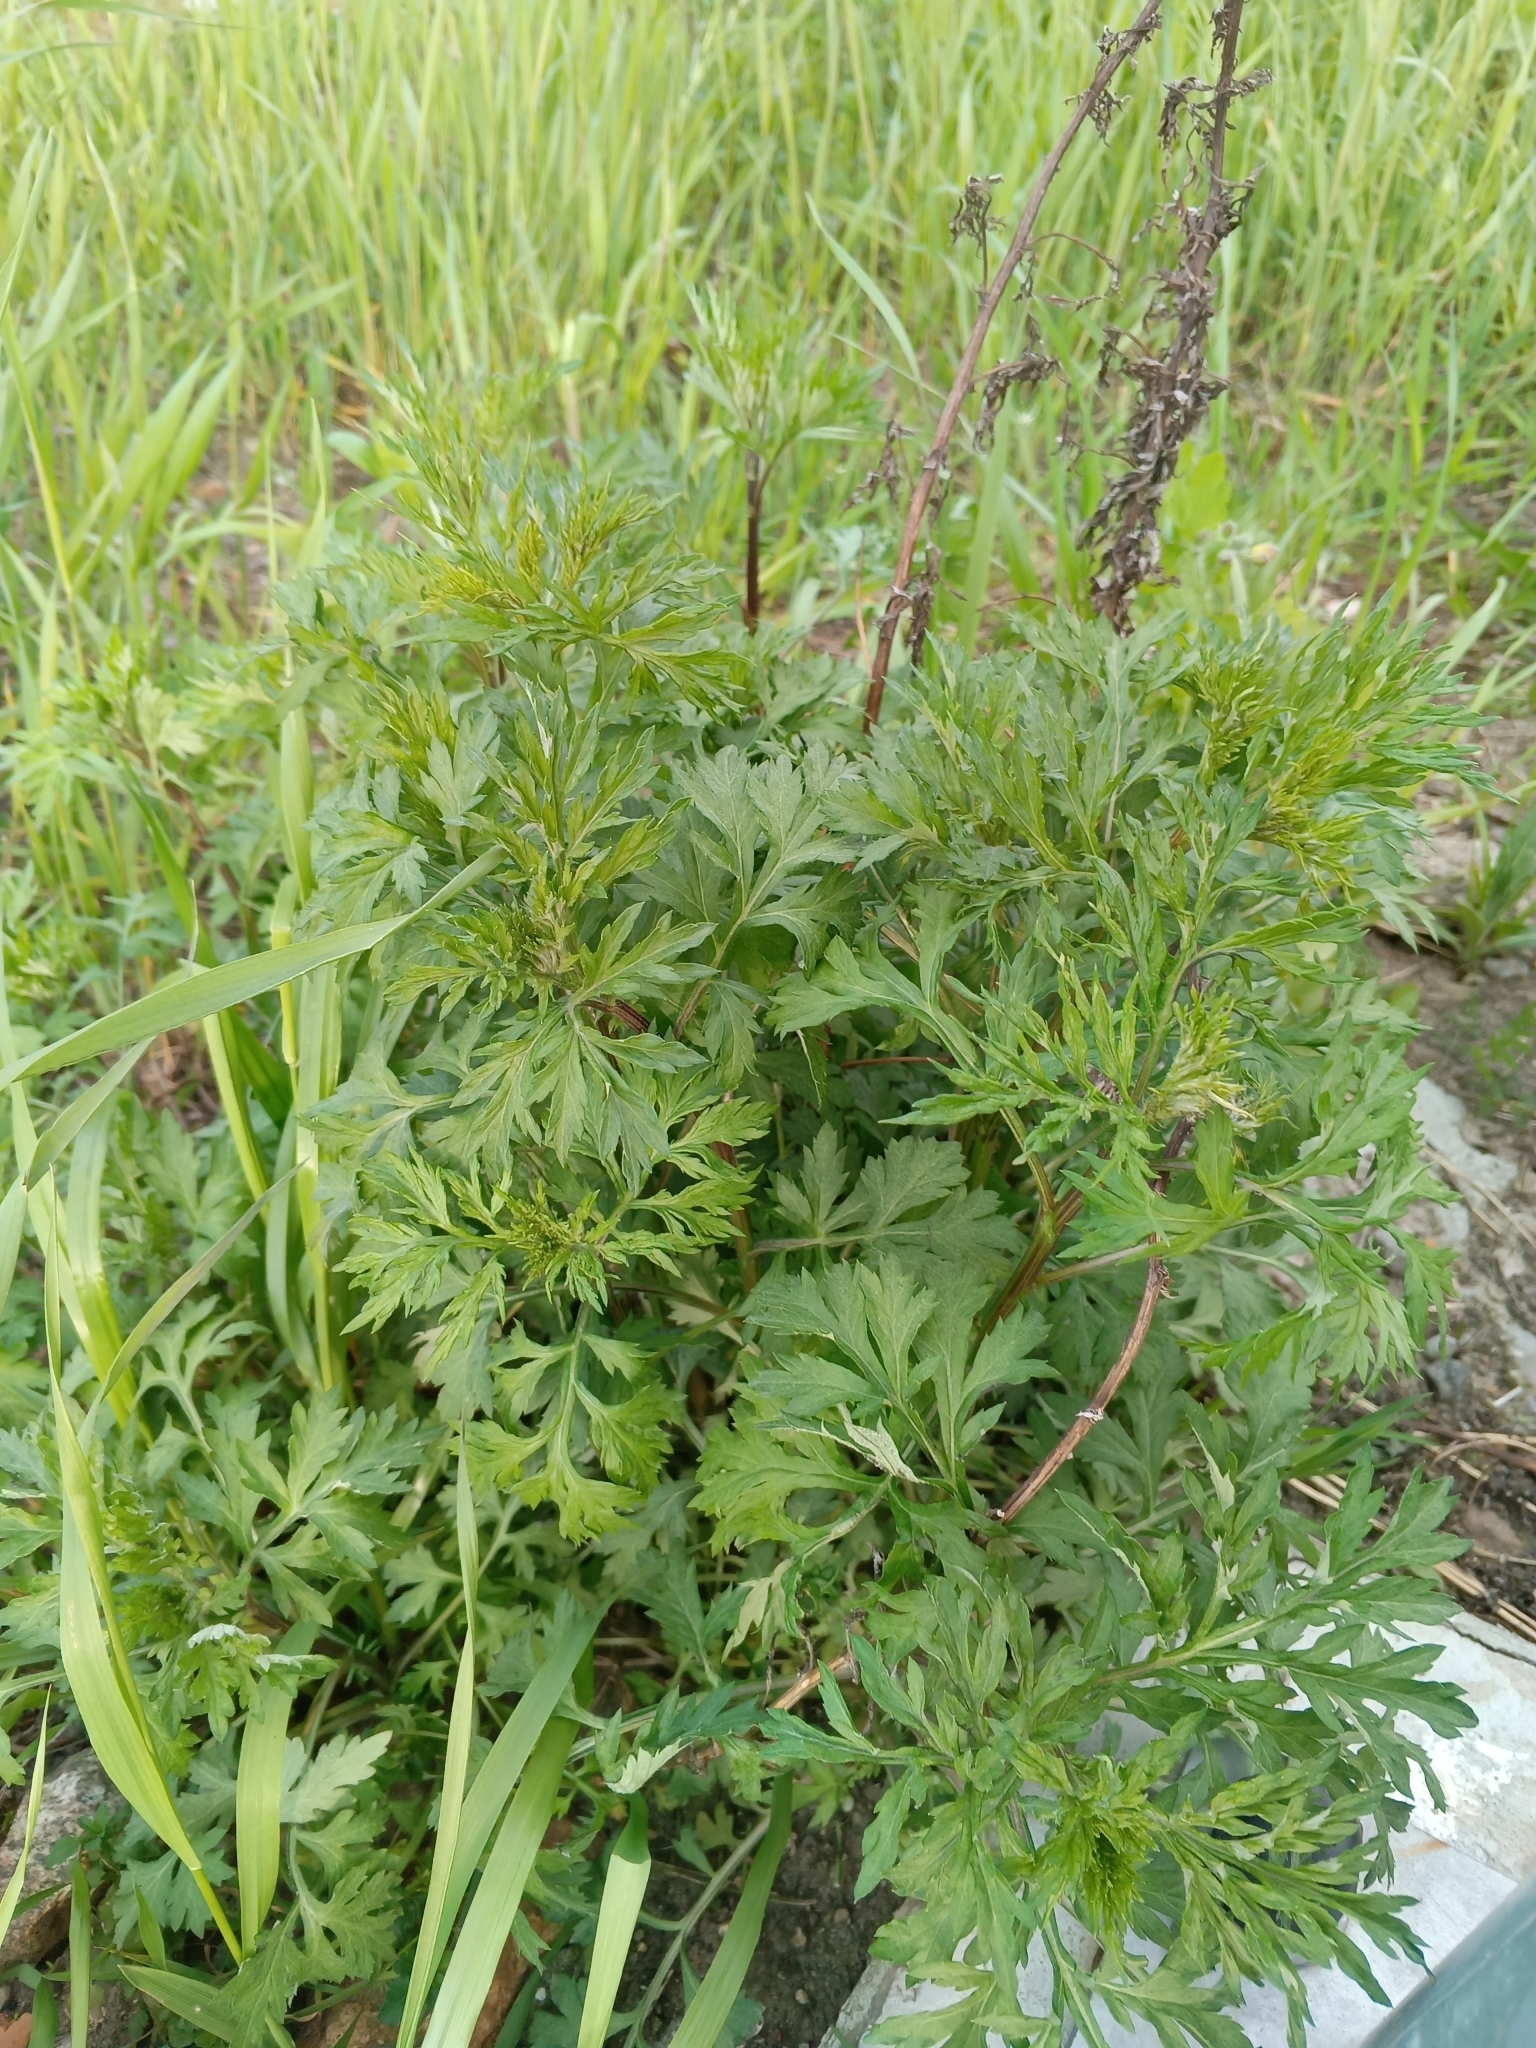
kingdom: Plantae
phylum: Tracheophyta
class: Magnoliopsida
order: Asterales
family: Asteraceae
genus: Artemisia
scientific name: Artemisia vulgaris
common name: Mugwort
